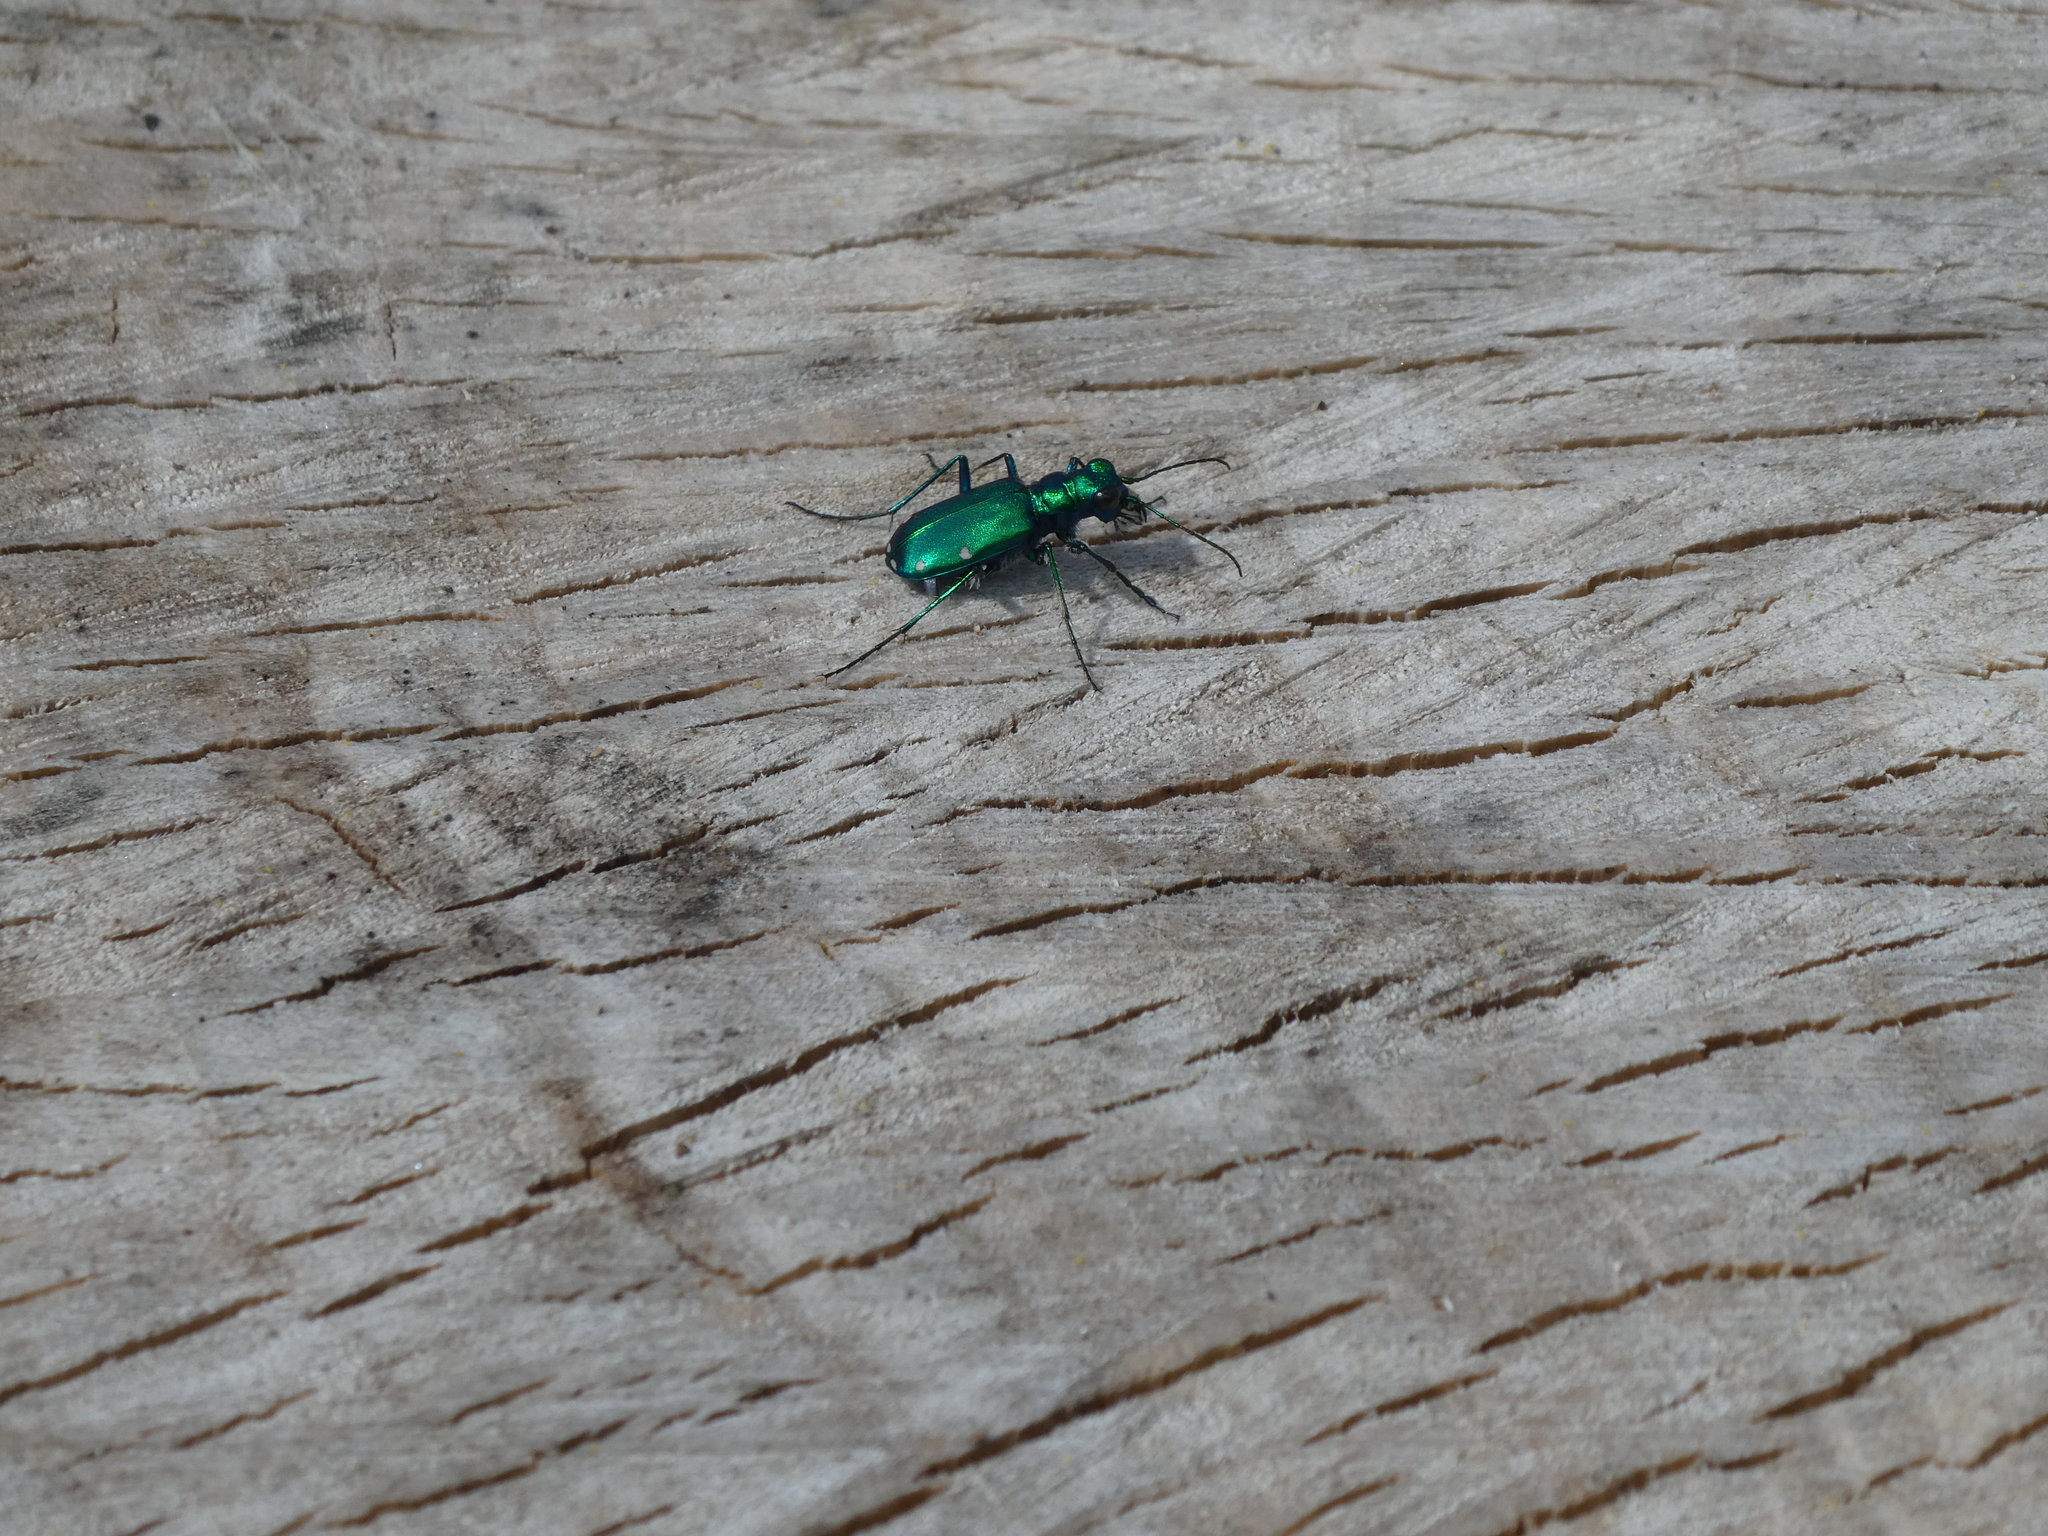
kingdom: Animalia
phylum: Arthropoda
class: Insecta
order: Coleoptera
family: Carabidae
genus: Cicindela
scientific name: Cicindela sexguttata
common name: Six-spotted tiger beetle
